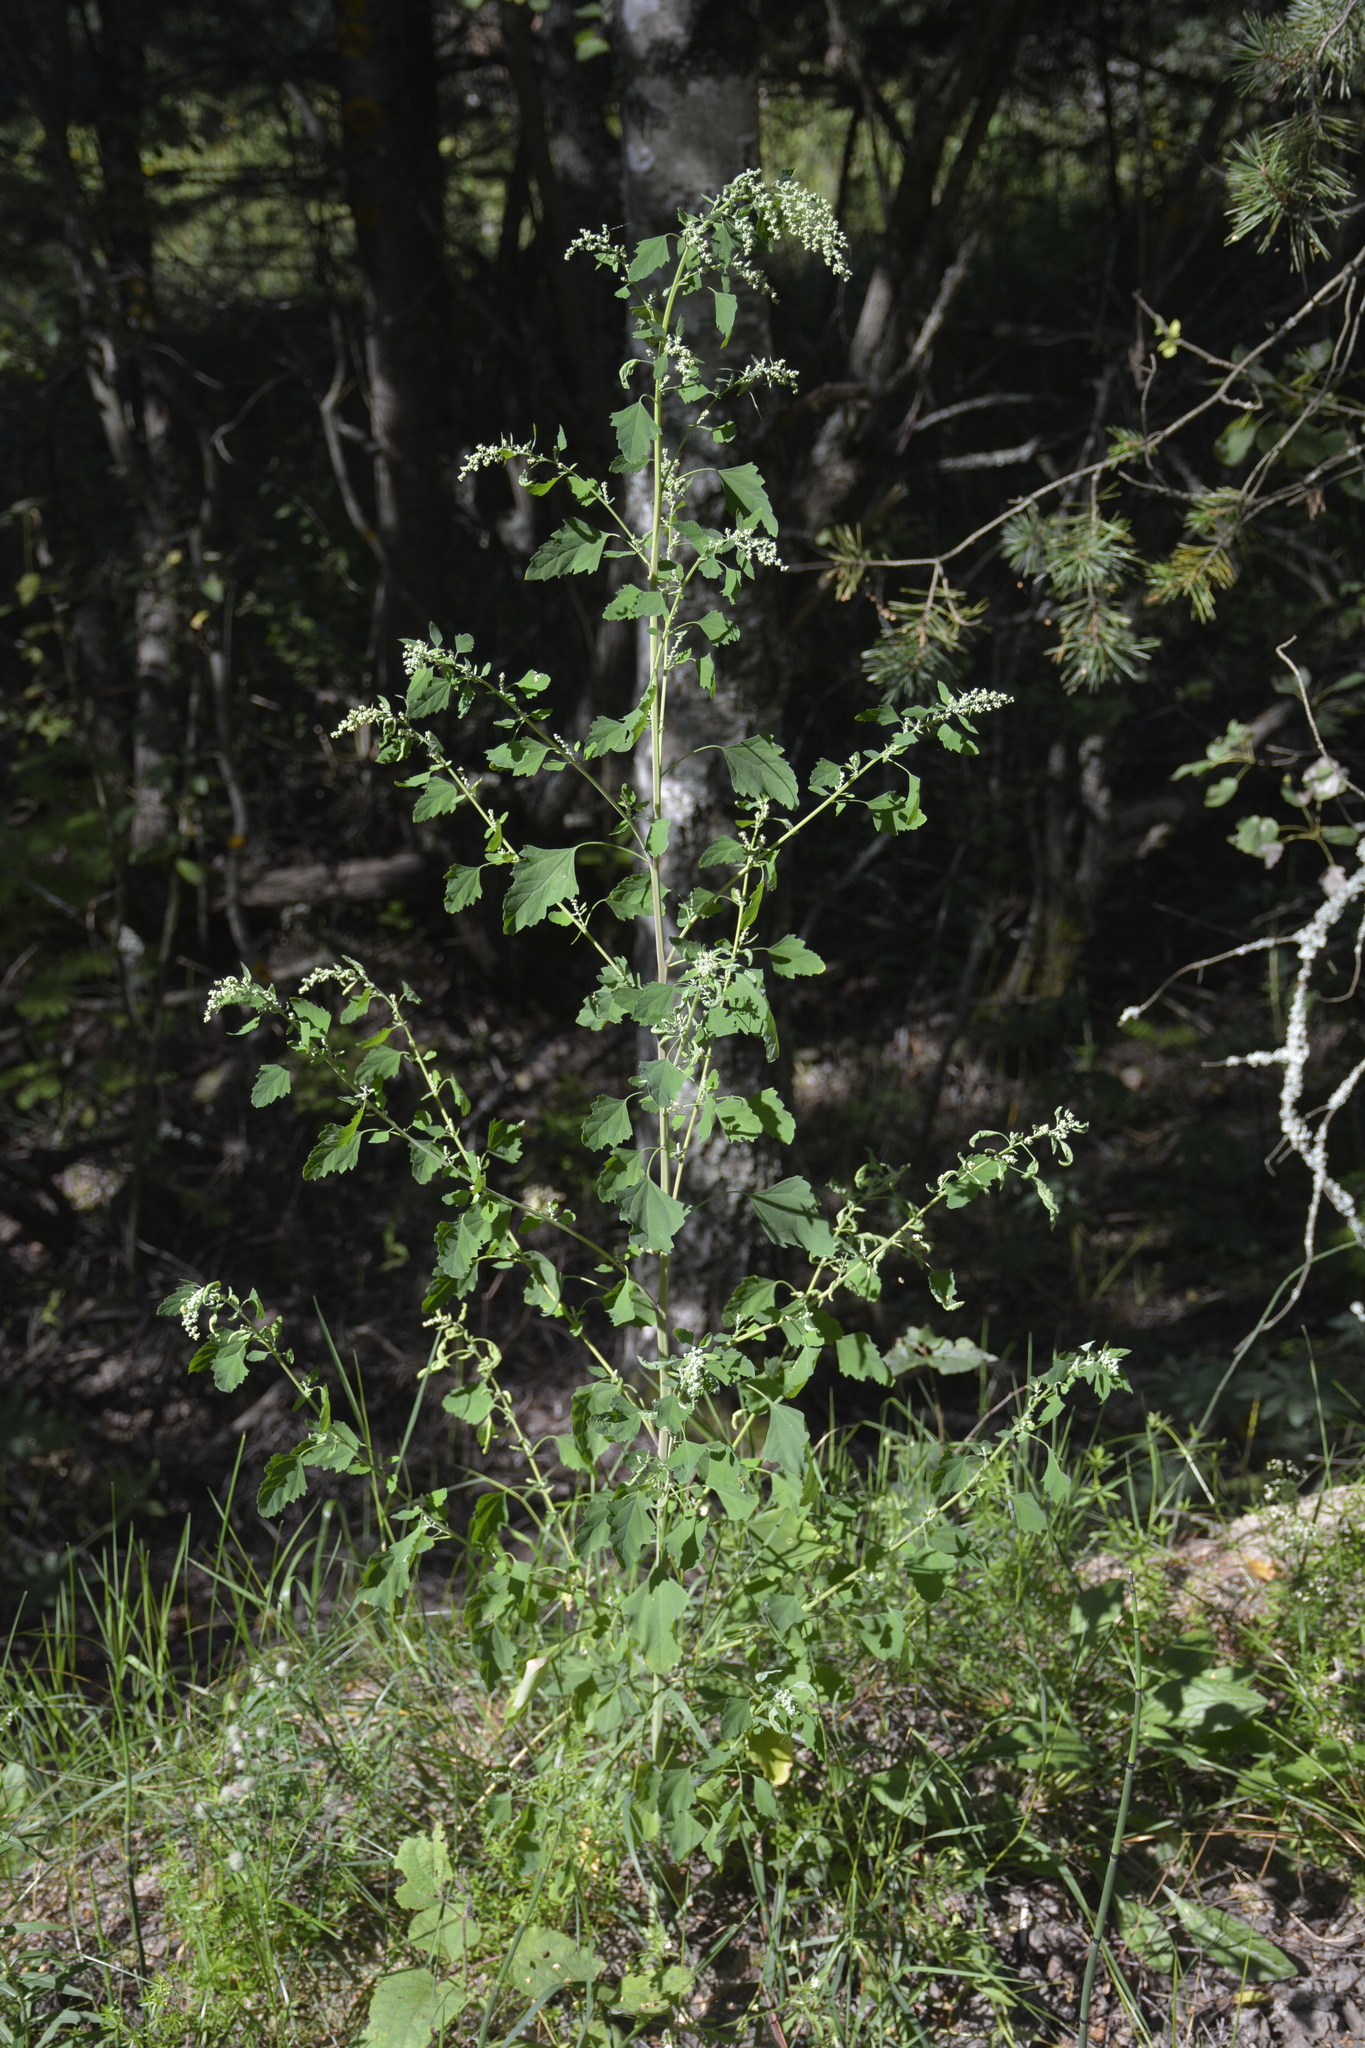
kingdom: Plantae
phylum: Tracheophyta
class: Magnoliopsida
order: Caryophyllales
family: Amaranthaceae
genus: Chenopodium
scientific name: Chenopodium album
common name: Fat-hen
